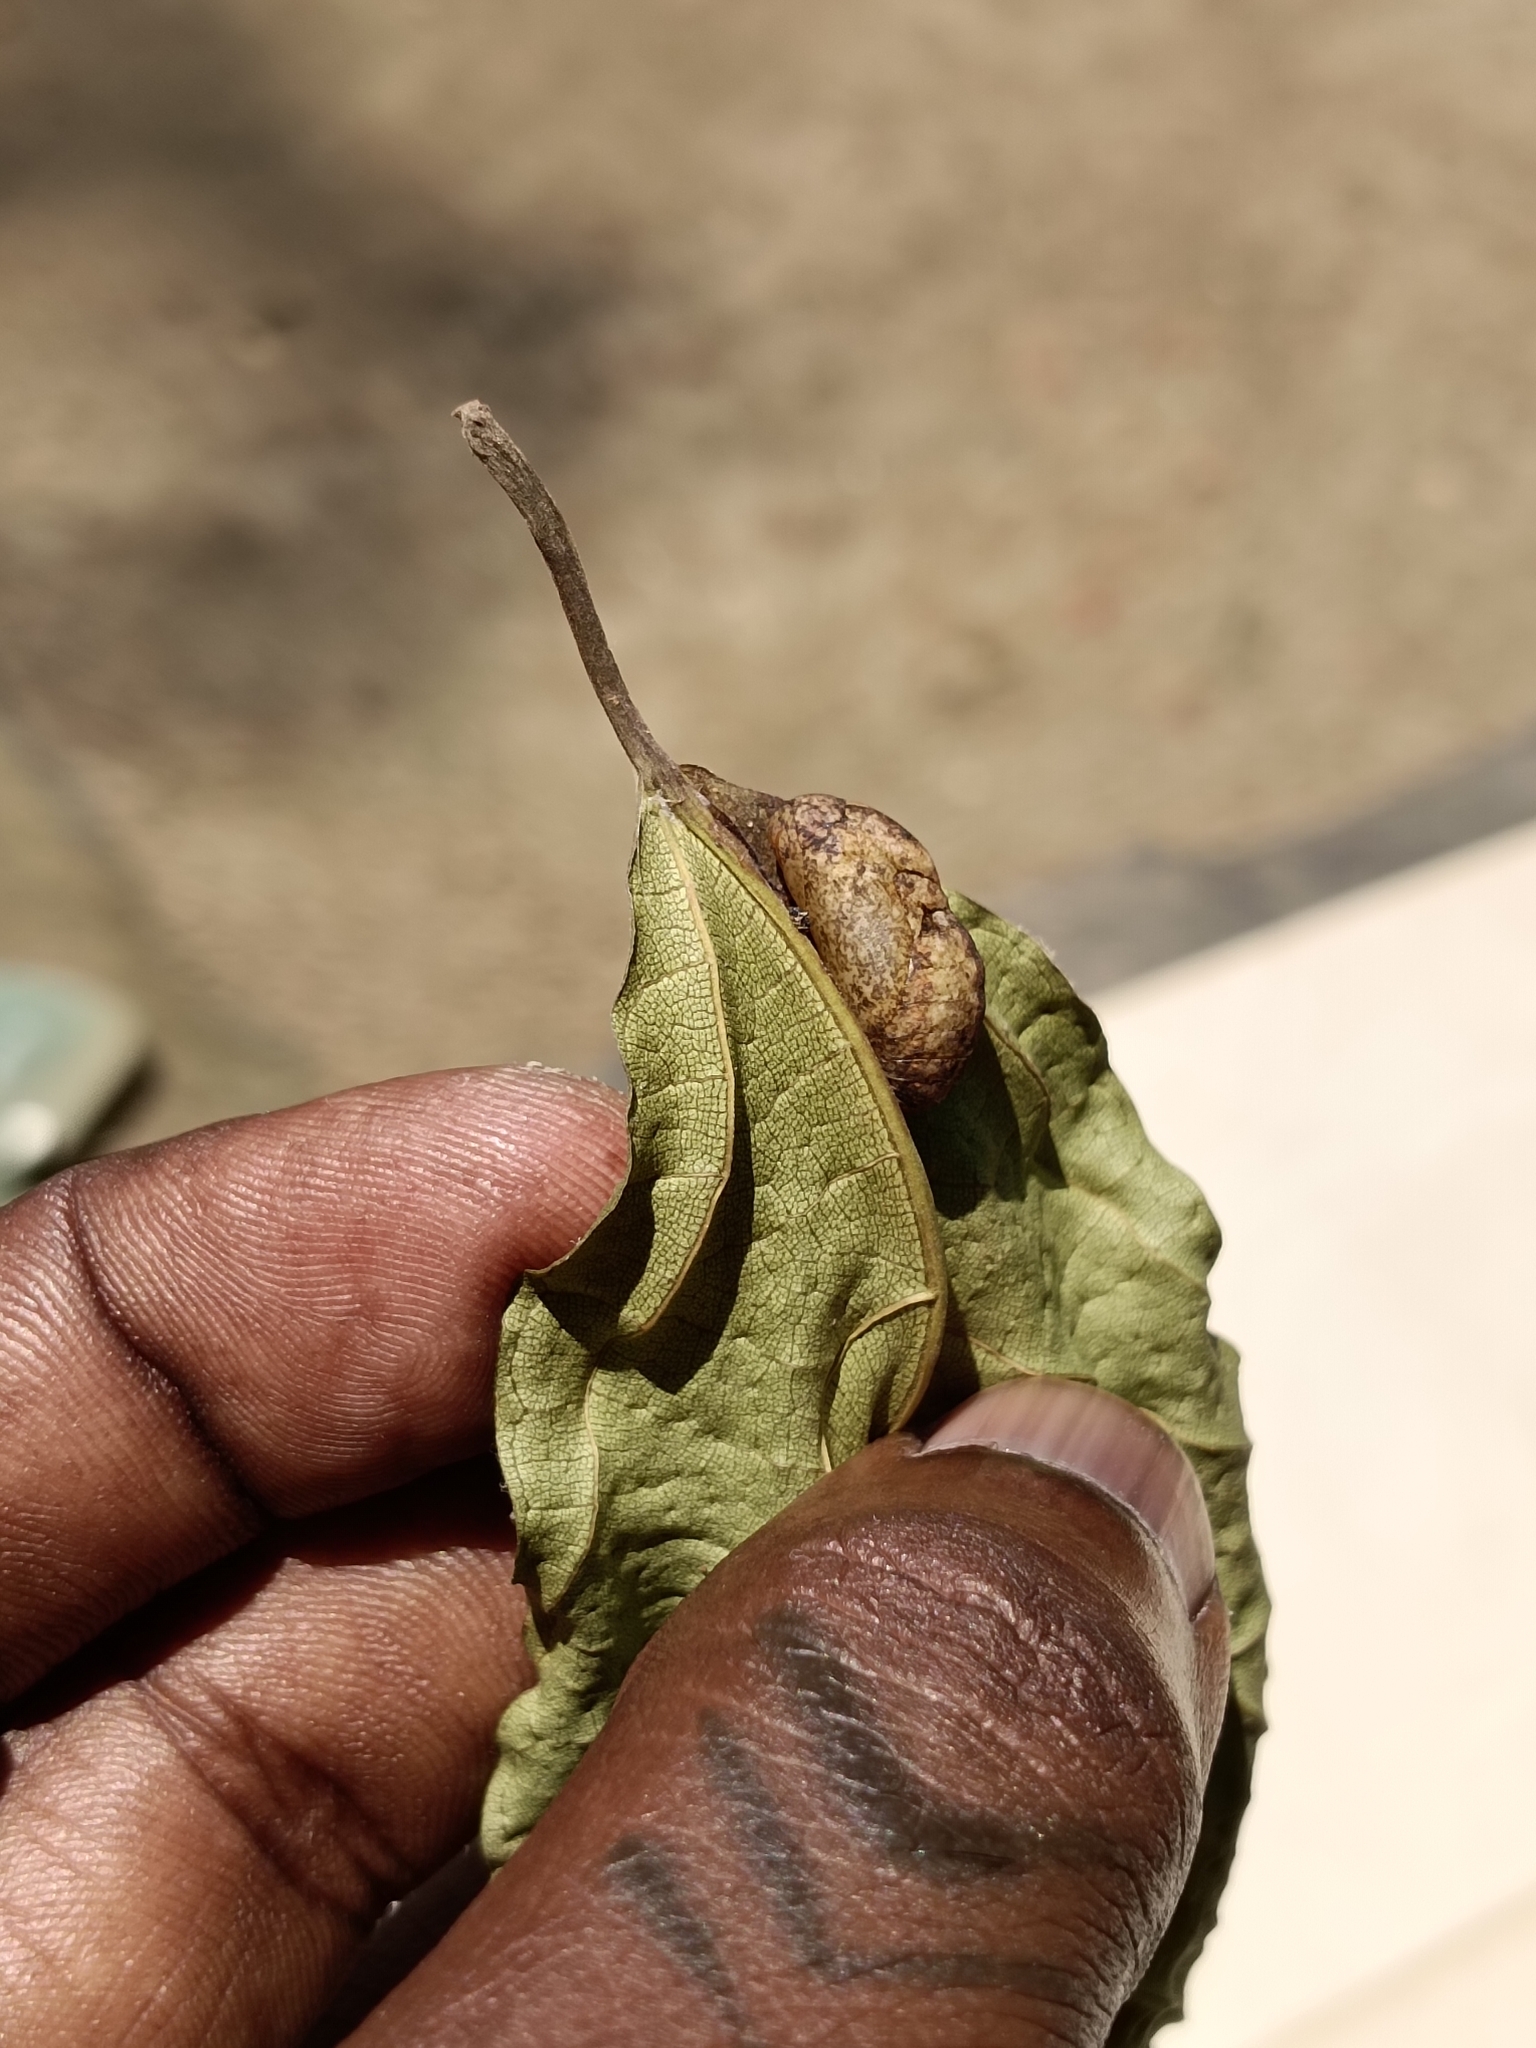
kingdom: Animalia
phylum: Arthropoda
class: Insecta
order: Lepidoptera
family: Lycaenidae
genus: Iraota
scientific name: Iraota timoleon
